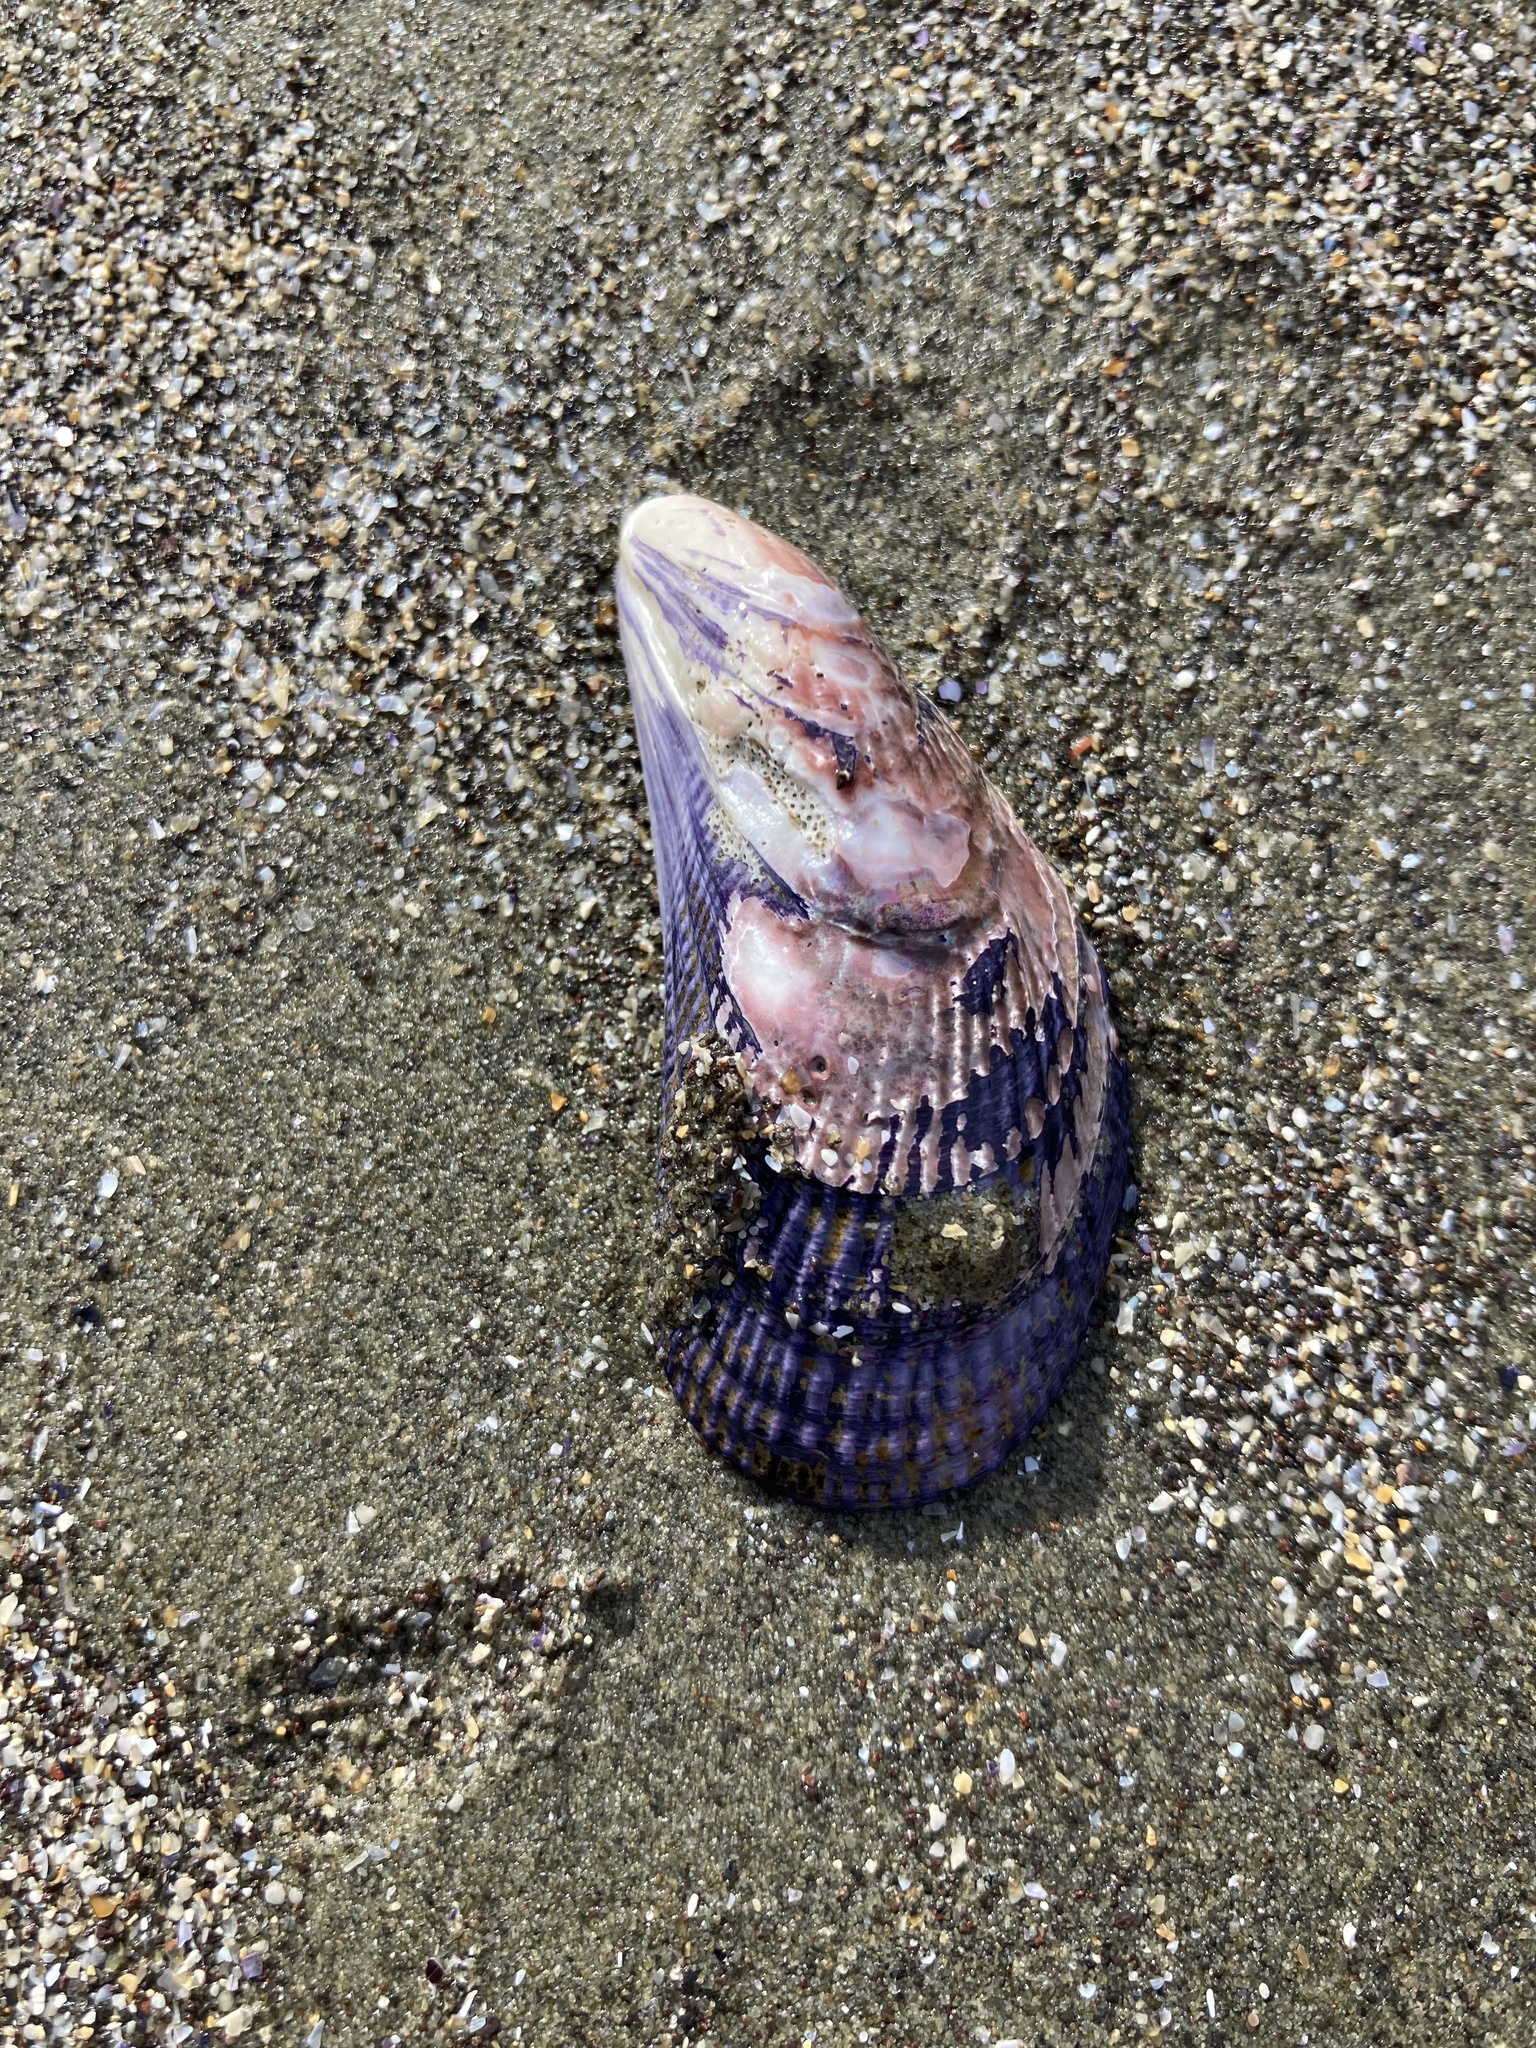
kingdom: Animalia
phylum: Mollusca
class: Bivalvia
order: Mytilida
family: Mytilidae
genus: Aulacomya
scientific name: Aulacomya maoriana
